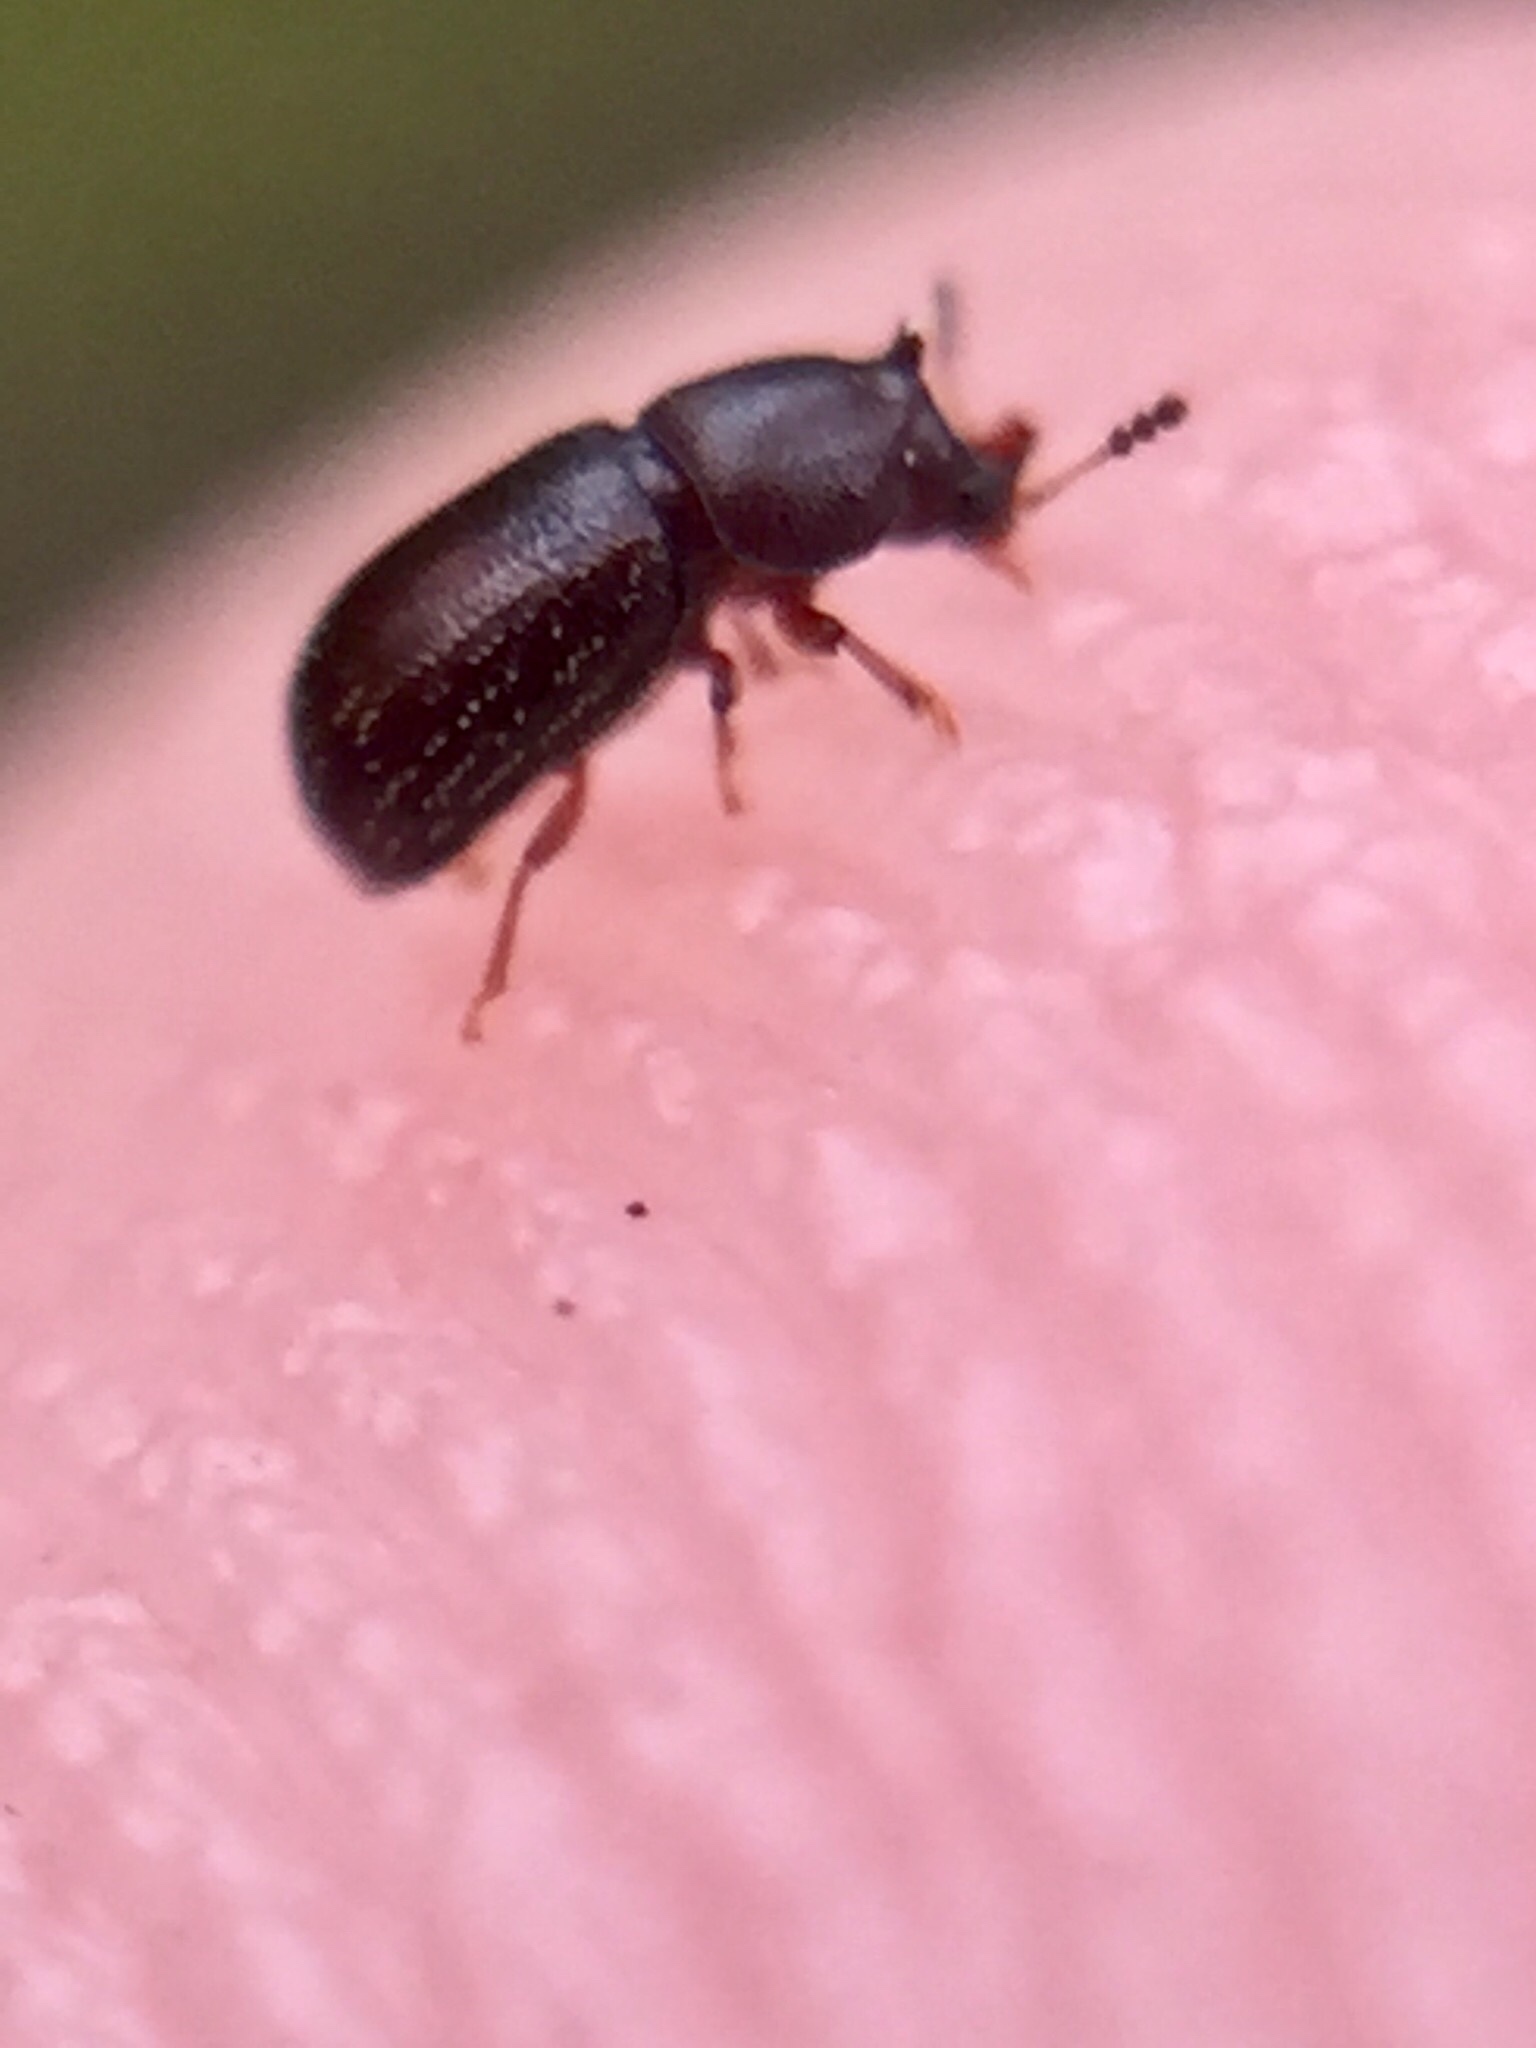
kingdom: Animalia
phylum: Arthropoda
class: Insecta
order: Coleoptera
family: Ciidae
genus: Cis
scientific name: Cis bilamellatus
